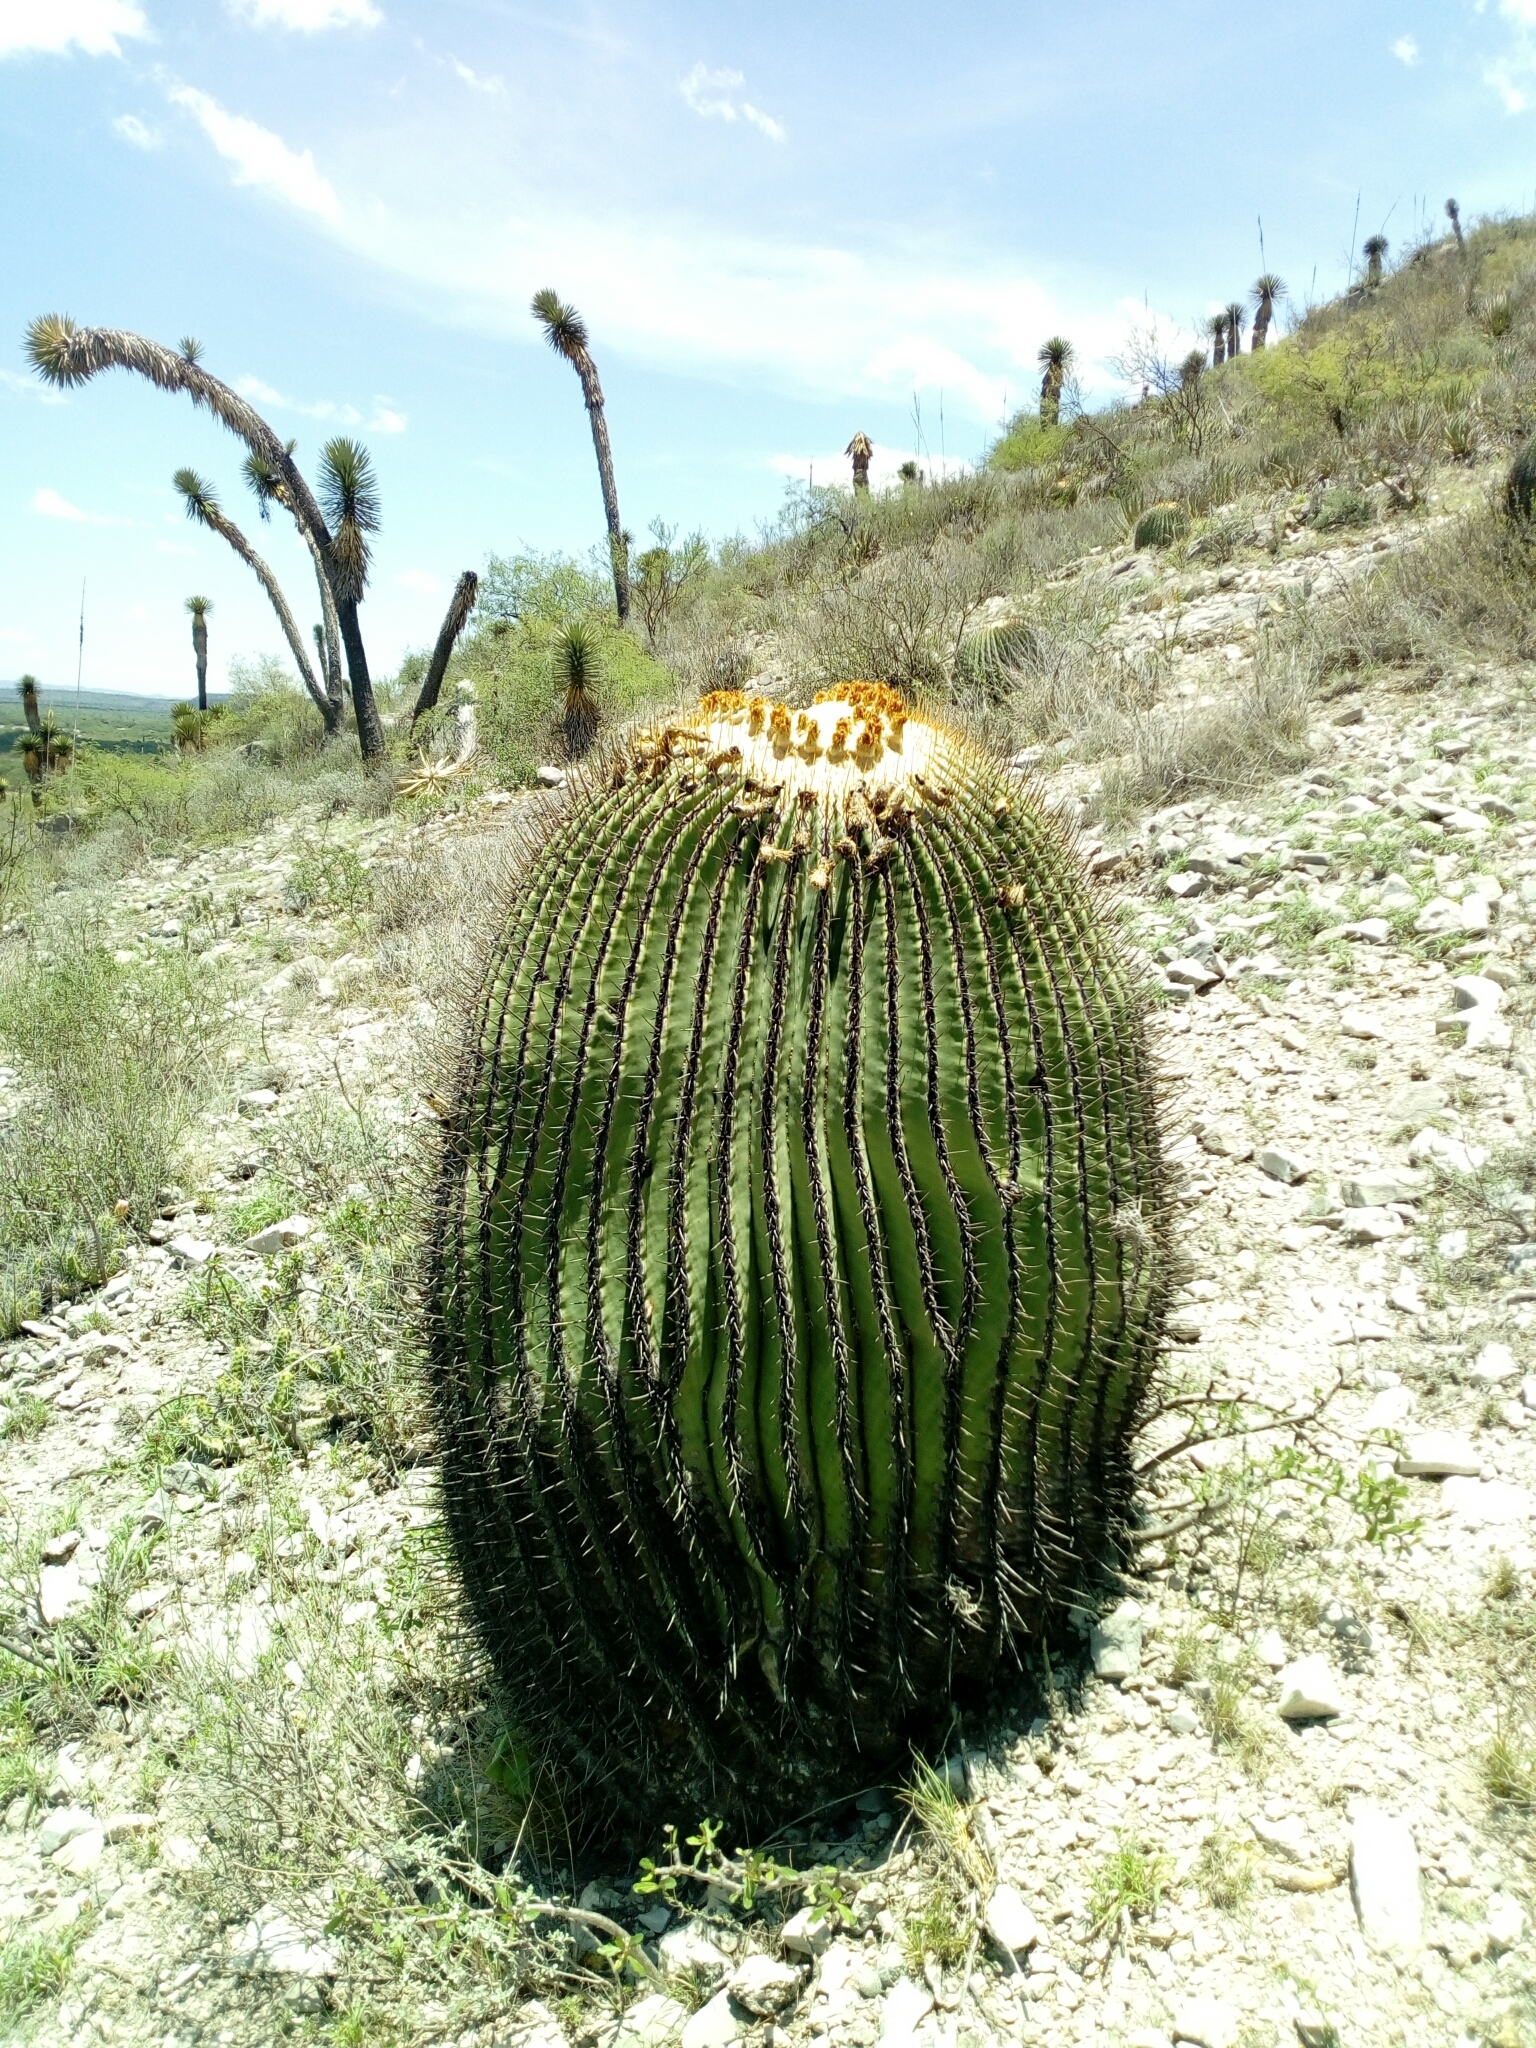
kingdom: Plantae
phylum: Tracheophyta
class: Magnoliopsida
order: Caryophyllales
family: Cactaceae
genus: Echinocactus
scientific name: Echinocactus platyacanthus
